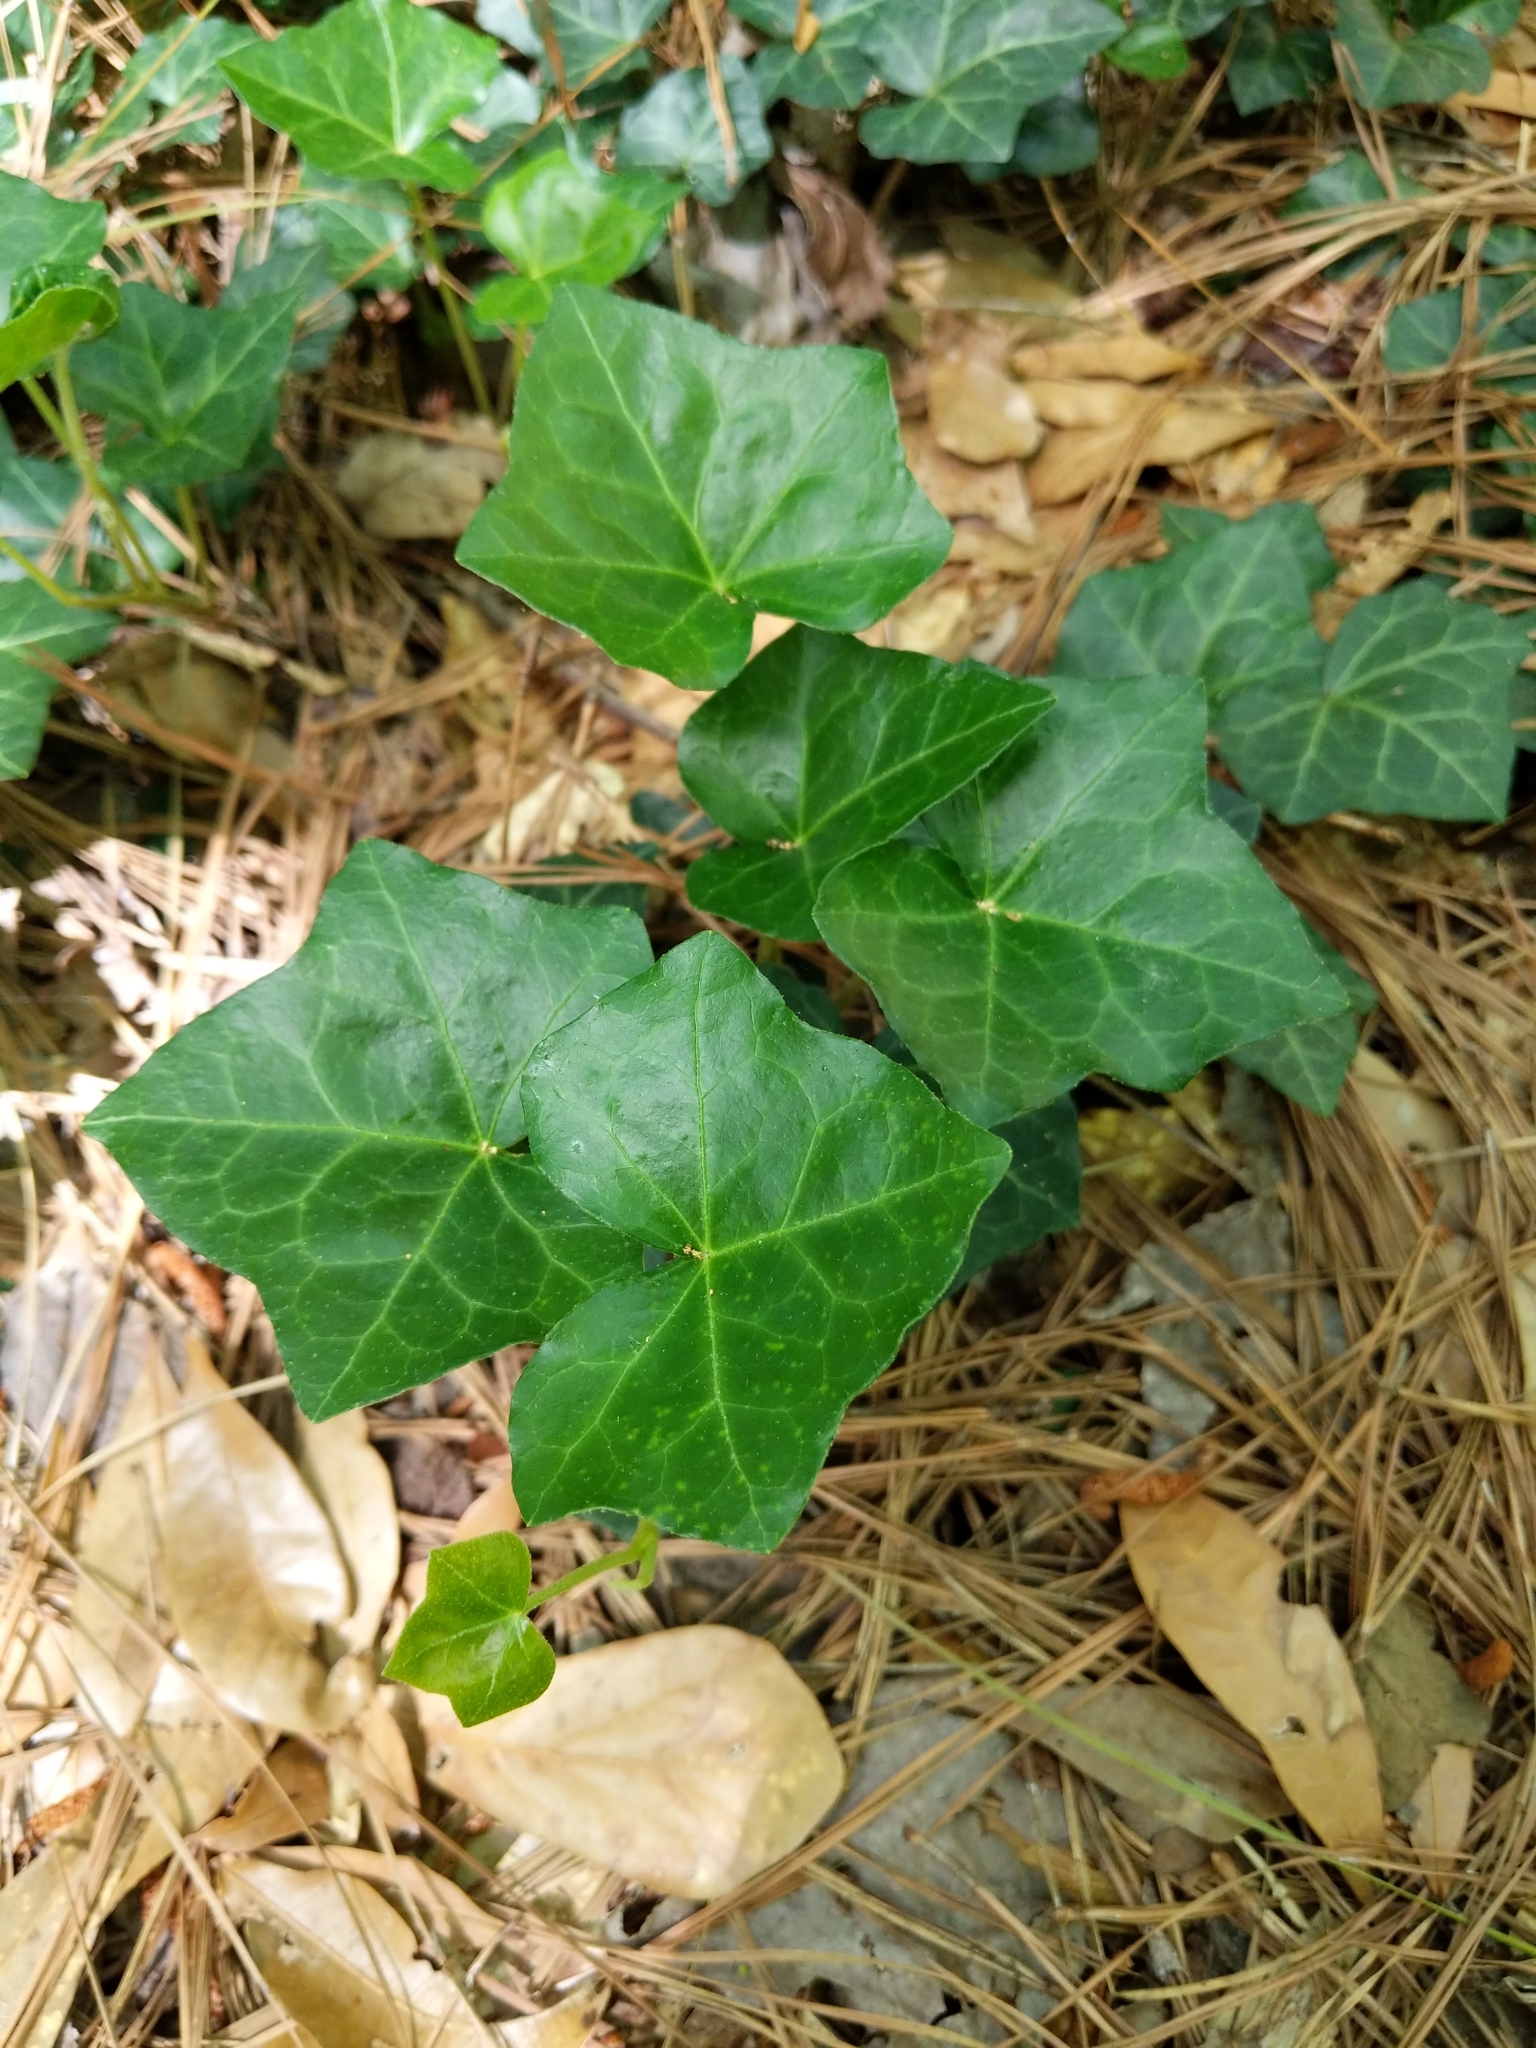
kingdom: Plantae
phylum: Tracheophyta
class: Magnoliopsida
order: Apiales
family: Araliaceae
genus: Hedera
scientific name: Hedera helix
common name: Ivy
